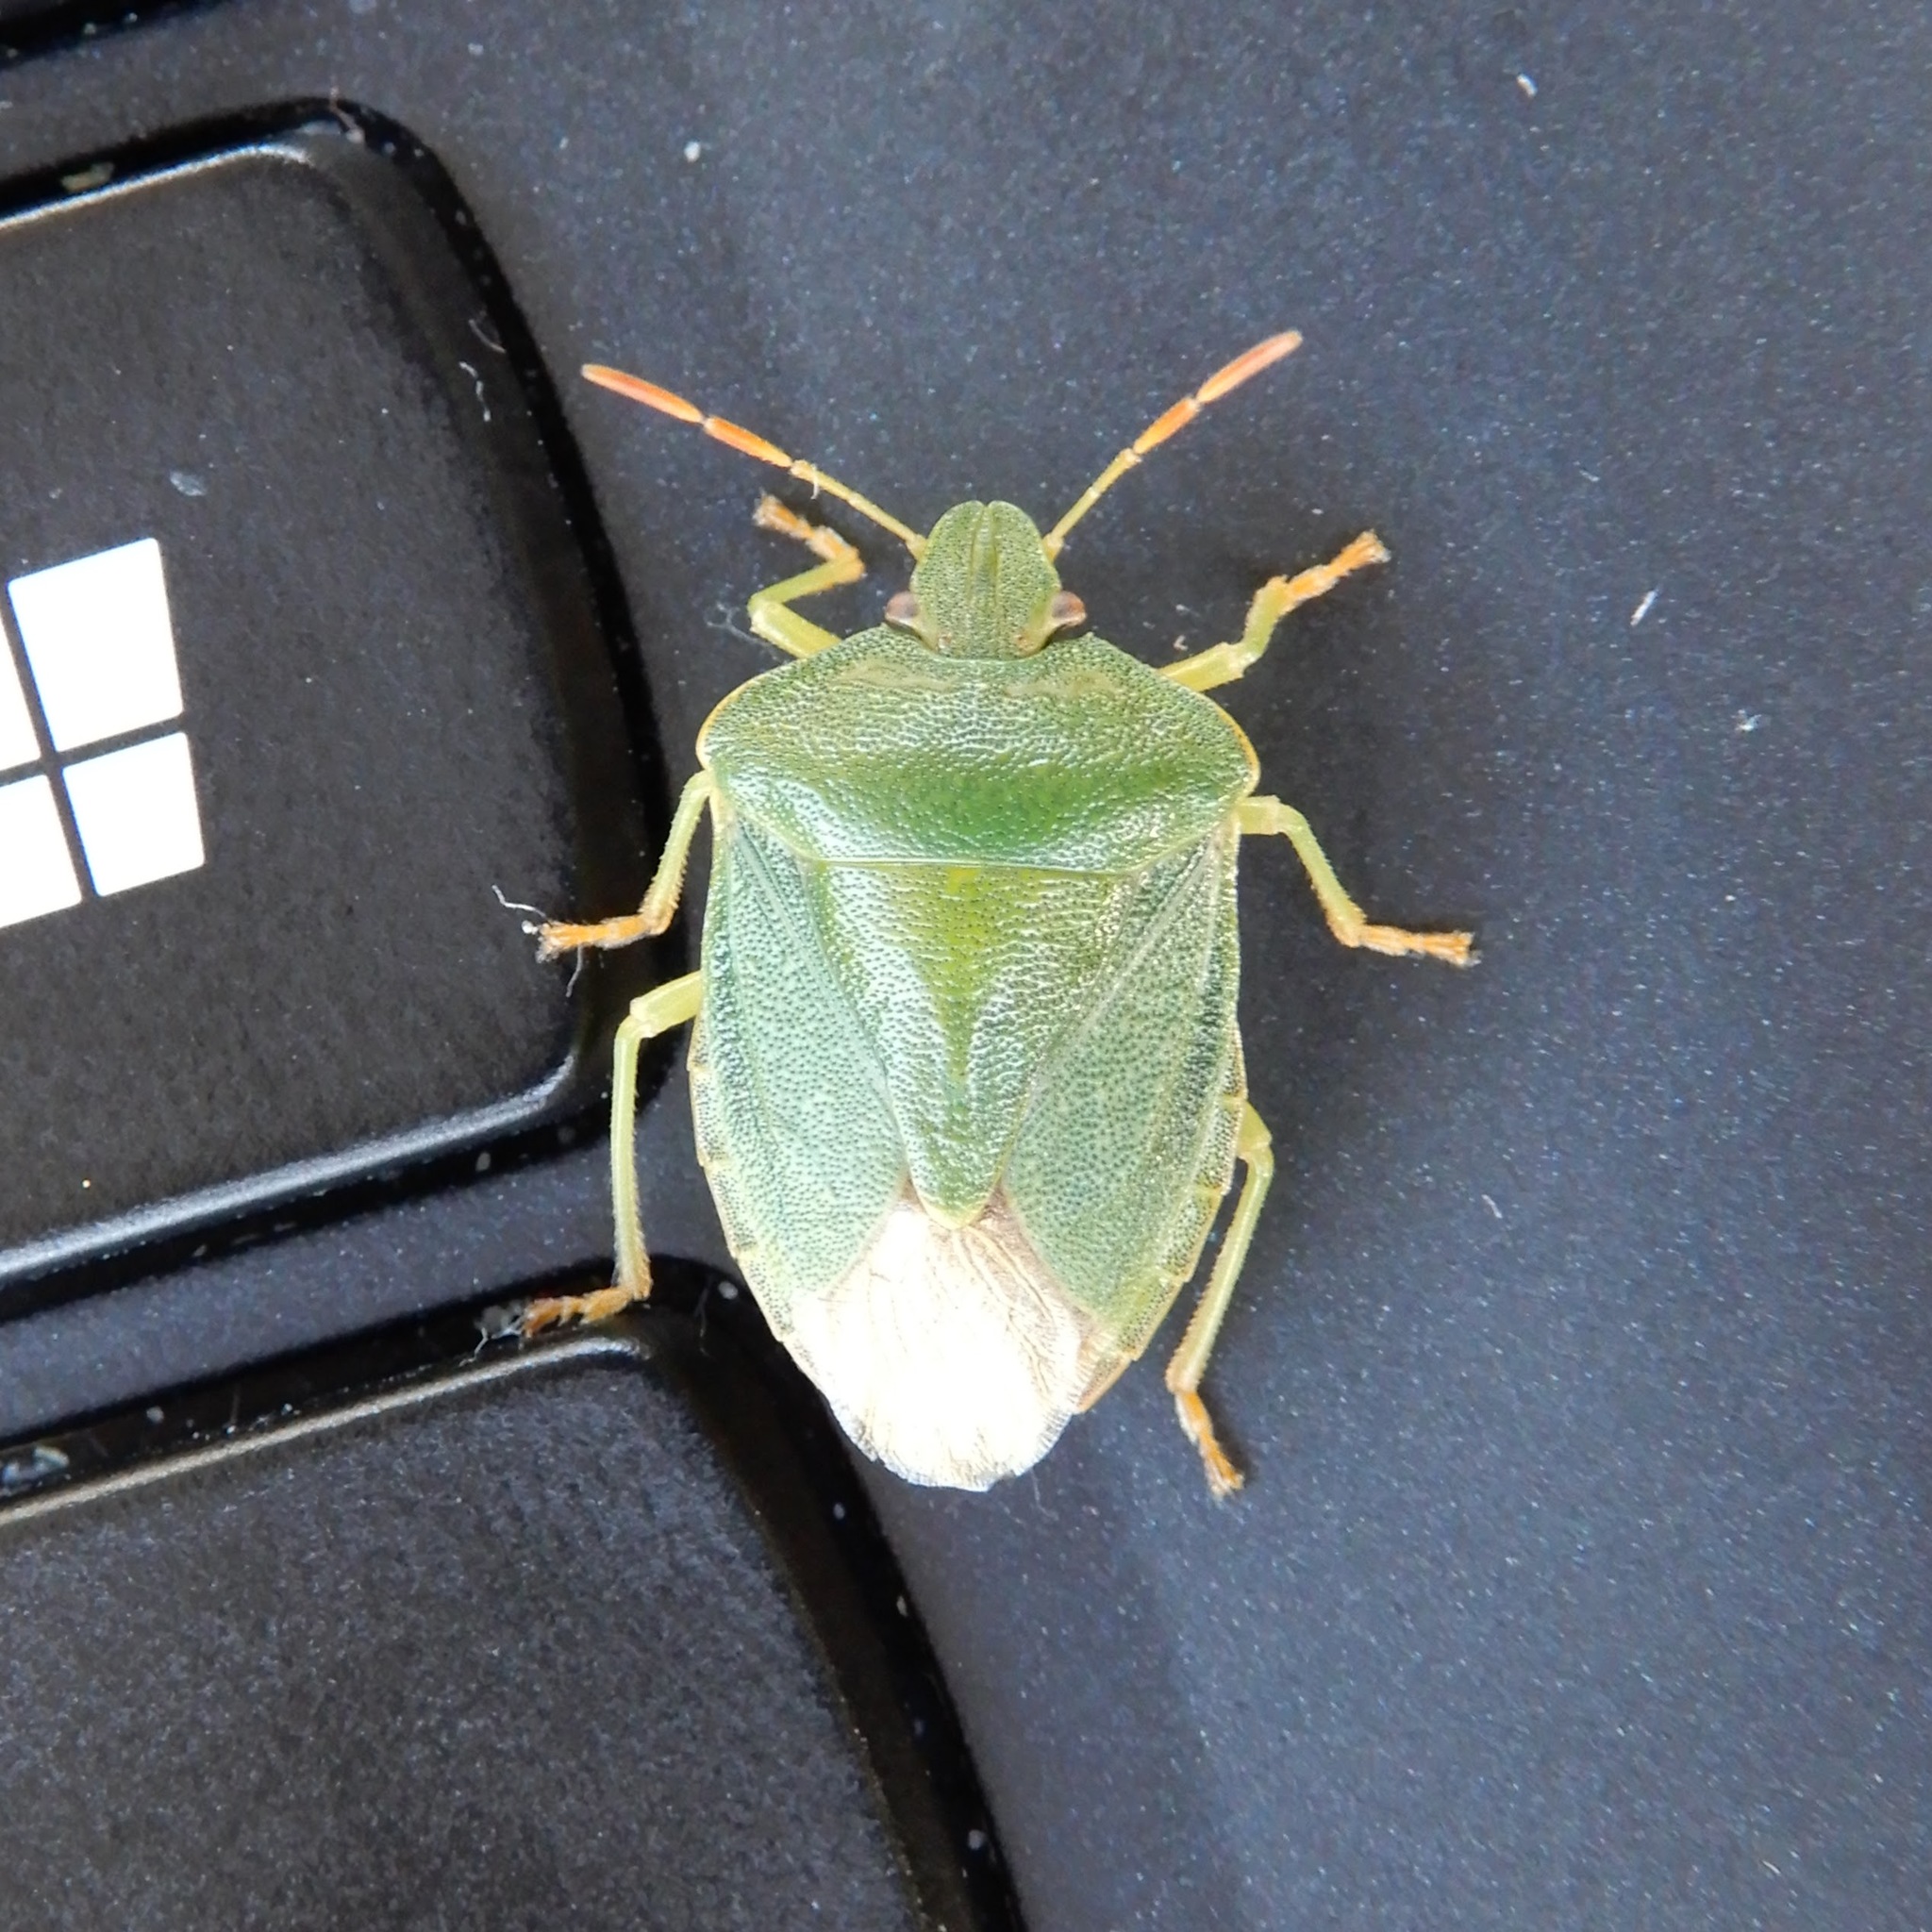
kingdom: Animalia
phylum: Arthropoda
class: Insecta
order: Hemiptera
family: Pentatomidae
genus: Palomena
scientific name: Palomena prasina
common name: Green shieldbug
